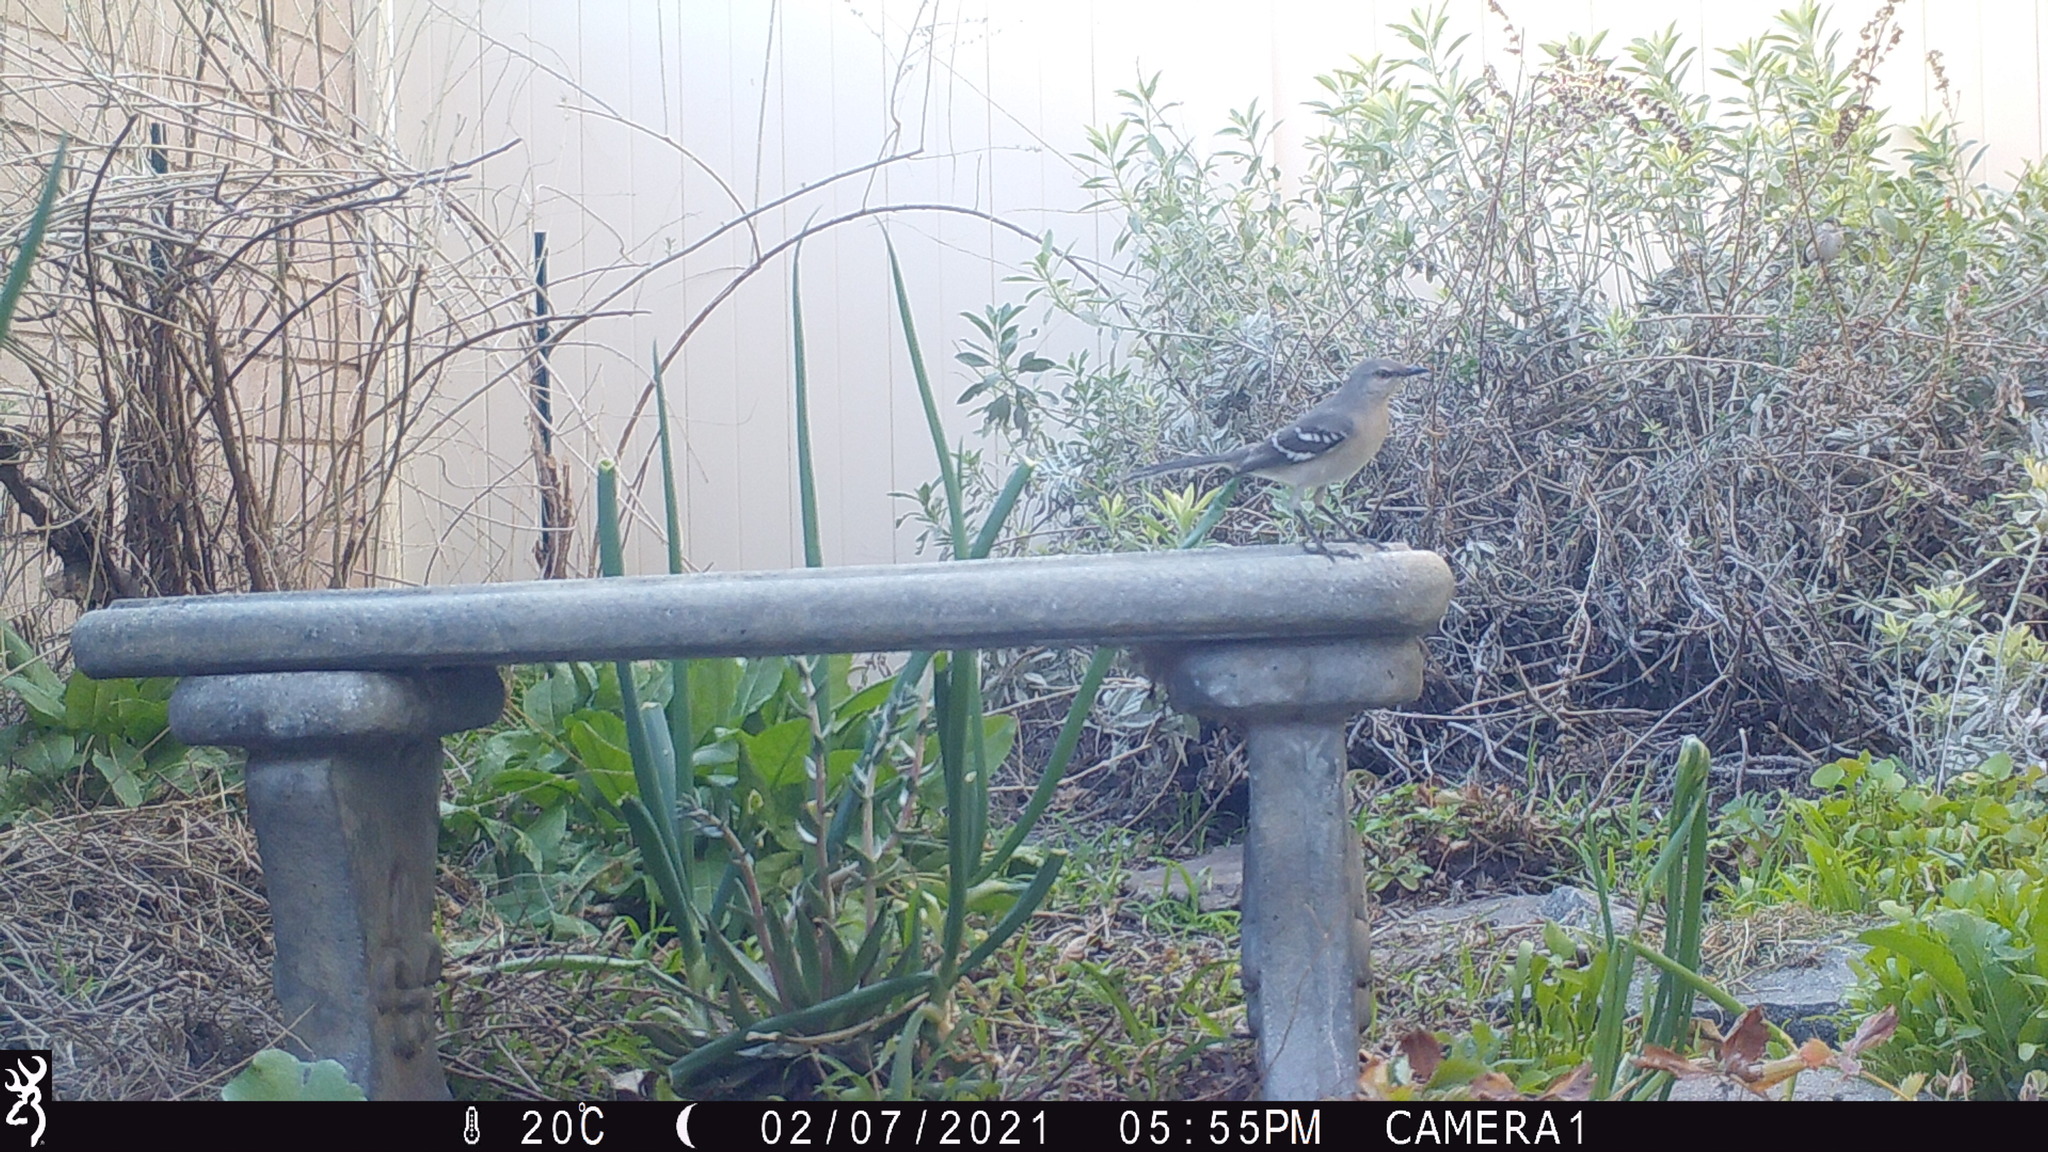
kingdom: Animalia
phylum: Chordata
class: Aves
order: Passeriformes
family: Mimidae
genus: Mimus
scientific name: Mimus polyglottos
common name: Northern mockingbird
